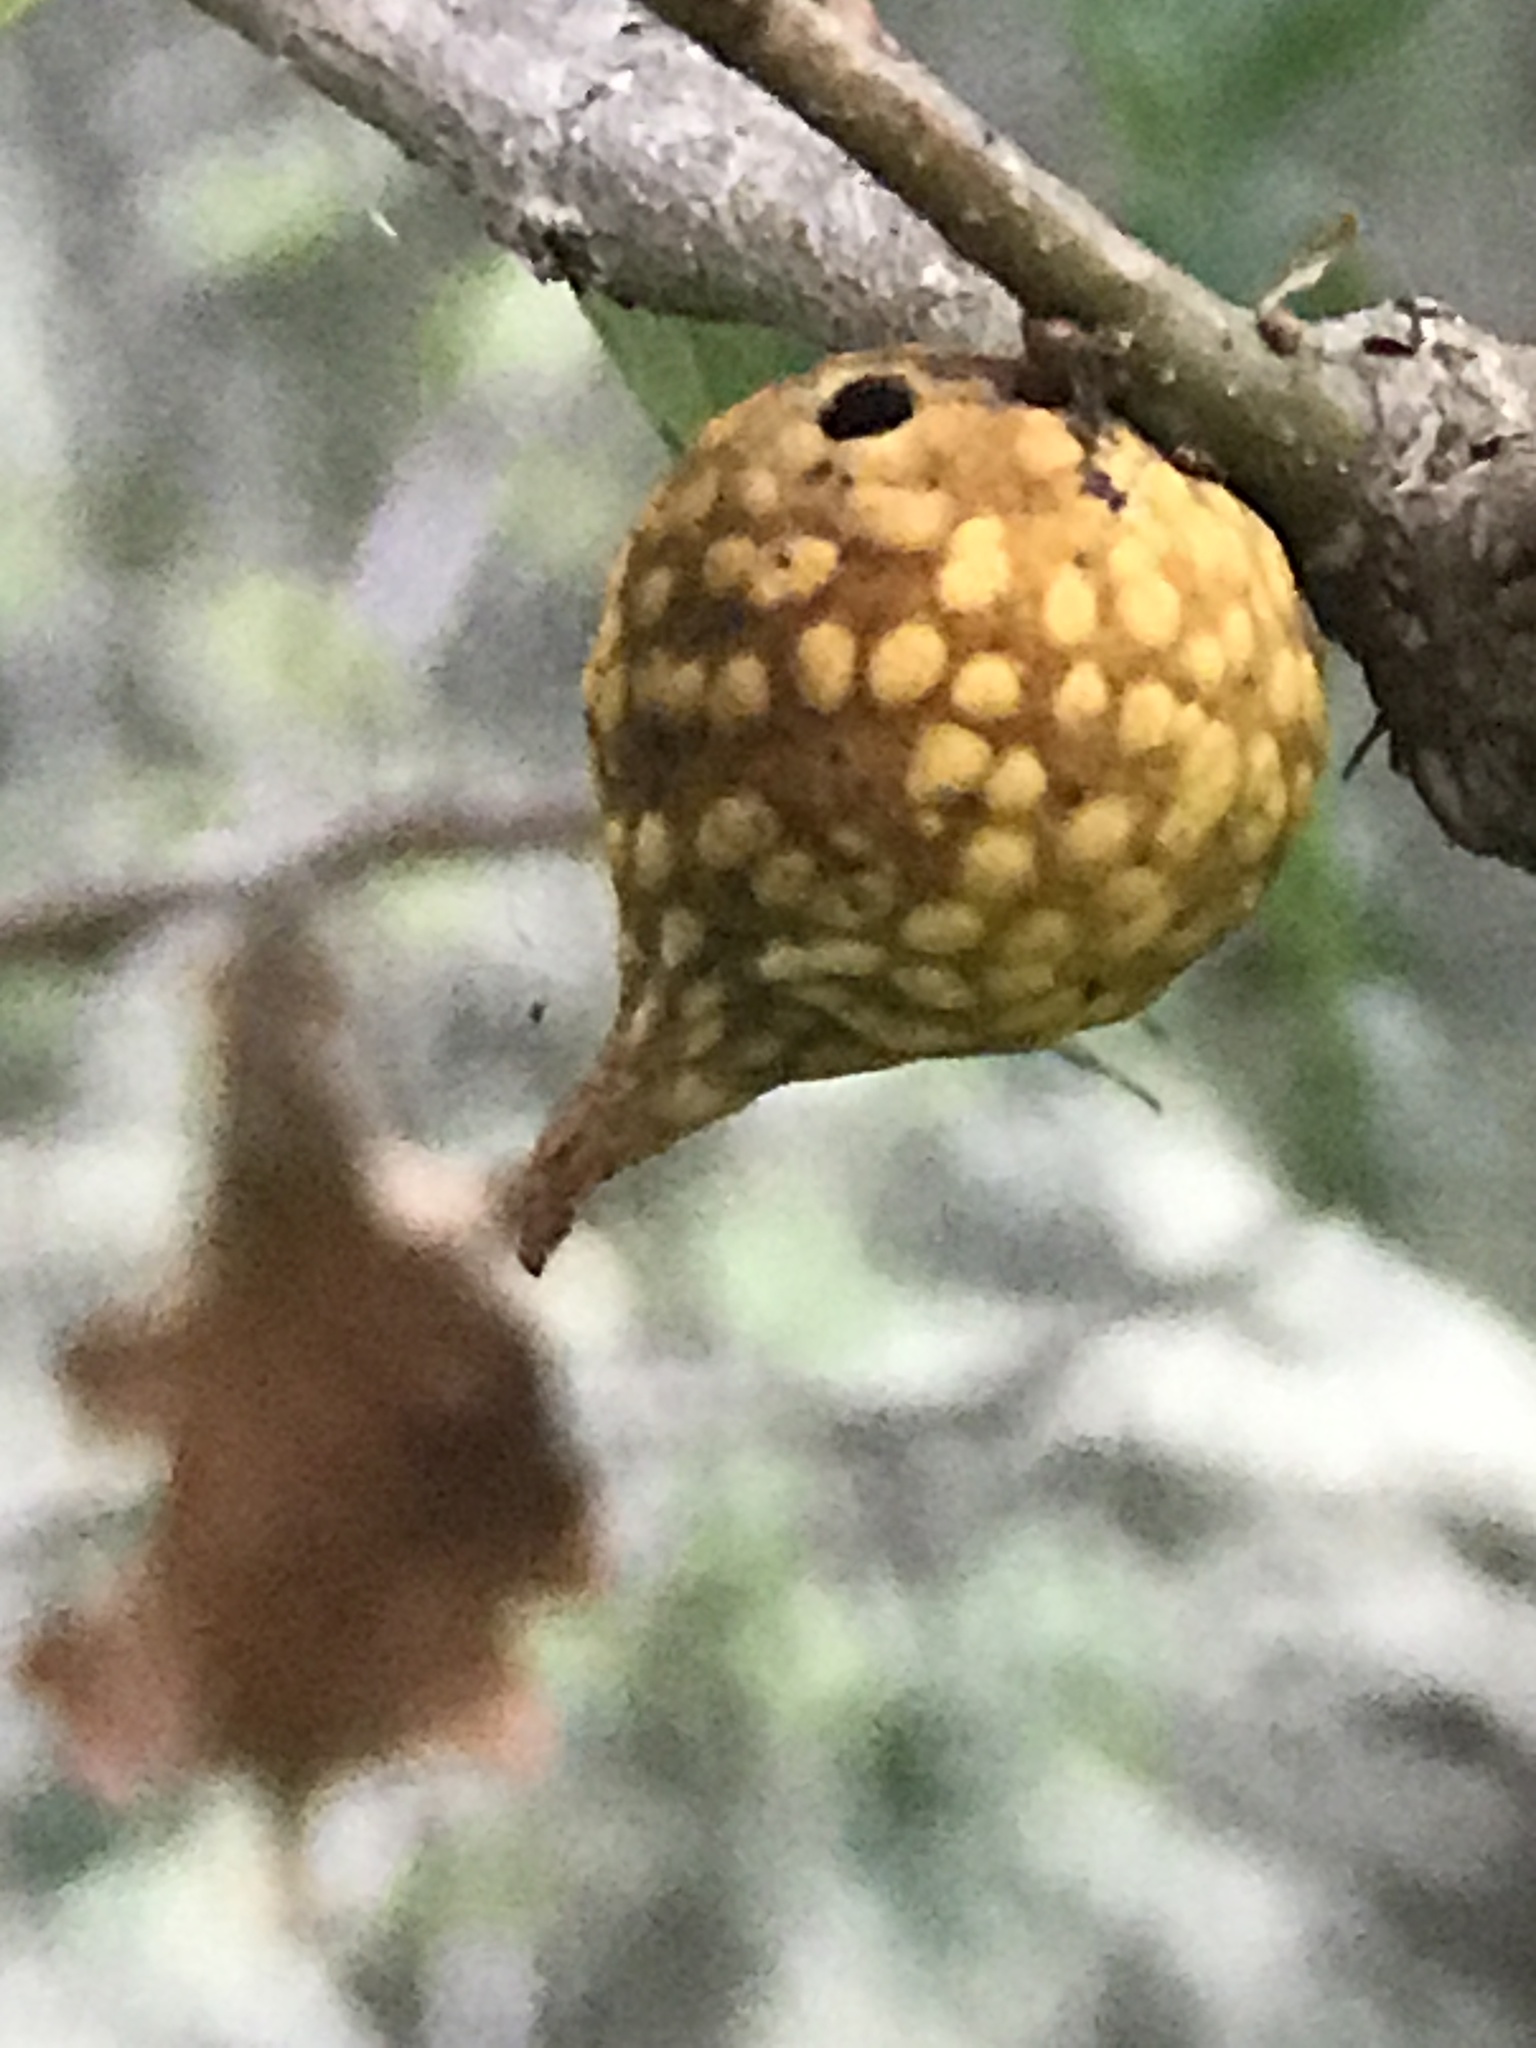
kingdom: Animalia
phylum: Arthropoda
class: Insecta
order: Hymenoptera
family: Cynipidae
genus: Burnettweldia
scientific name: Burnettweldia
